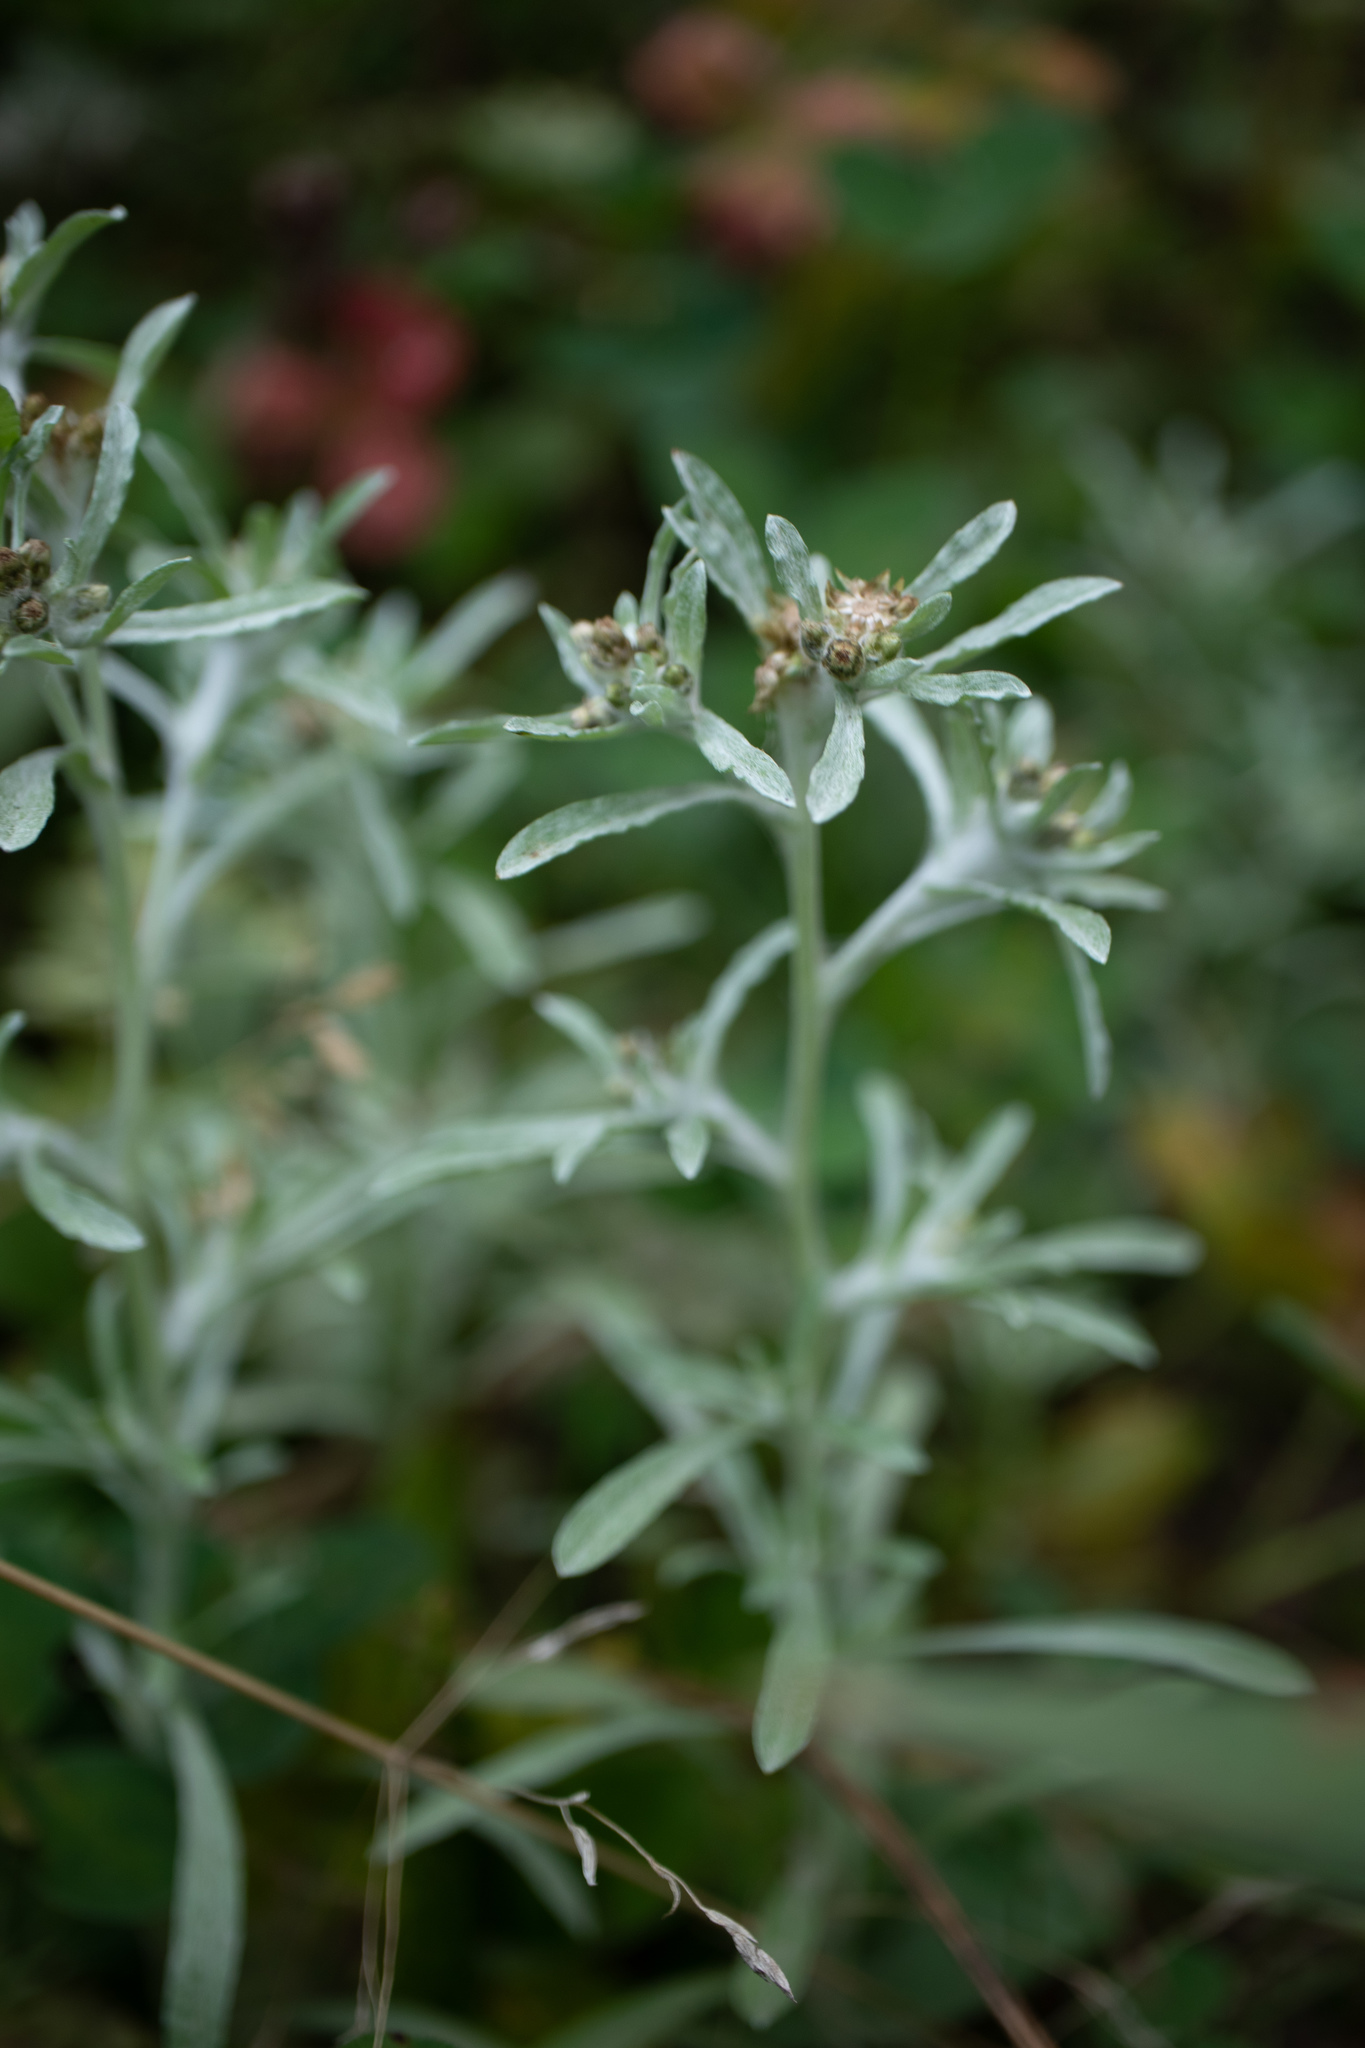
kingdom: Plantae
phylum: Tracheophyta
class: Magnoliopsida
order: Asterales
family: Asteraceae
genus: Gnaphalium
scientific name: Gnaphalium uliginosum
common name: Marsh cudweed
